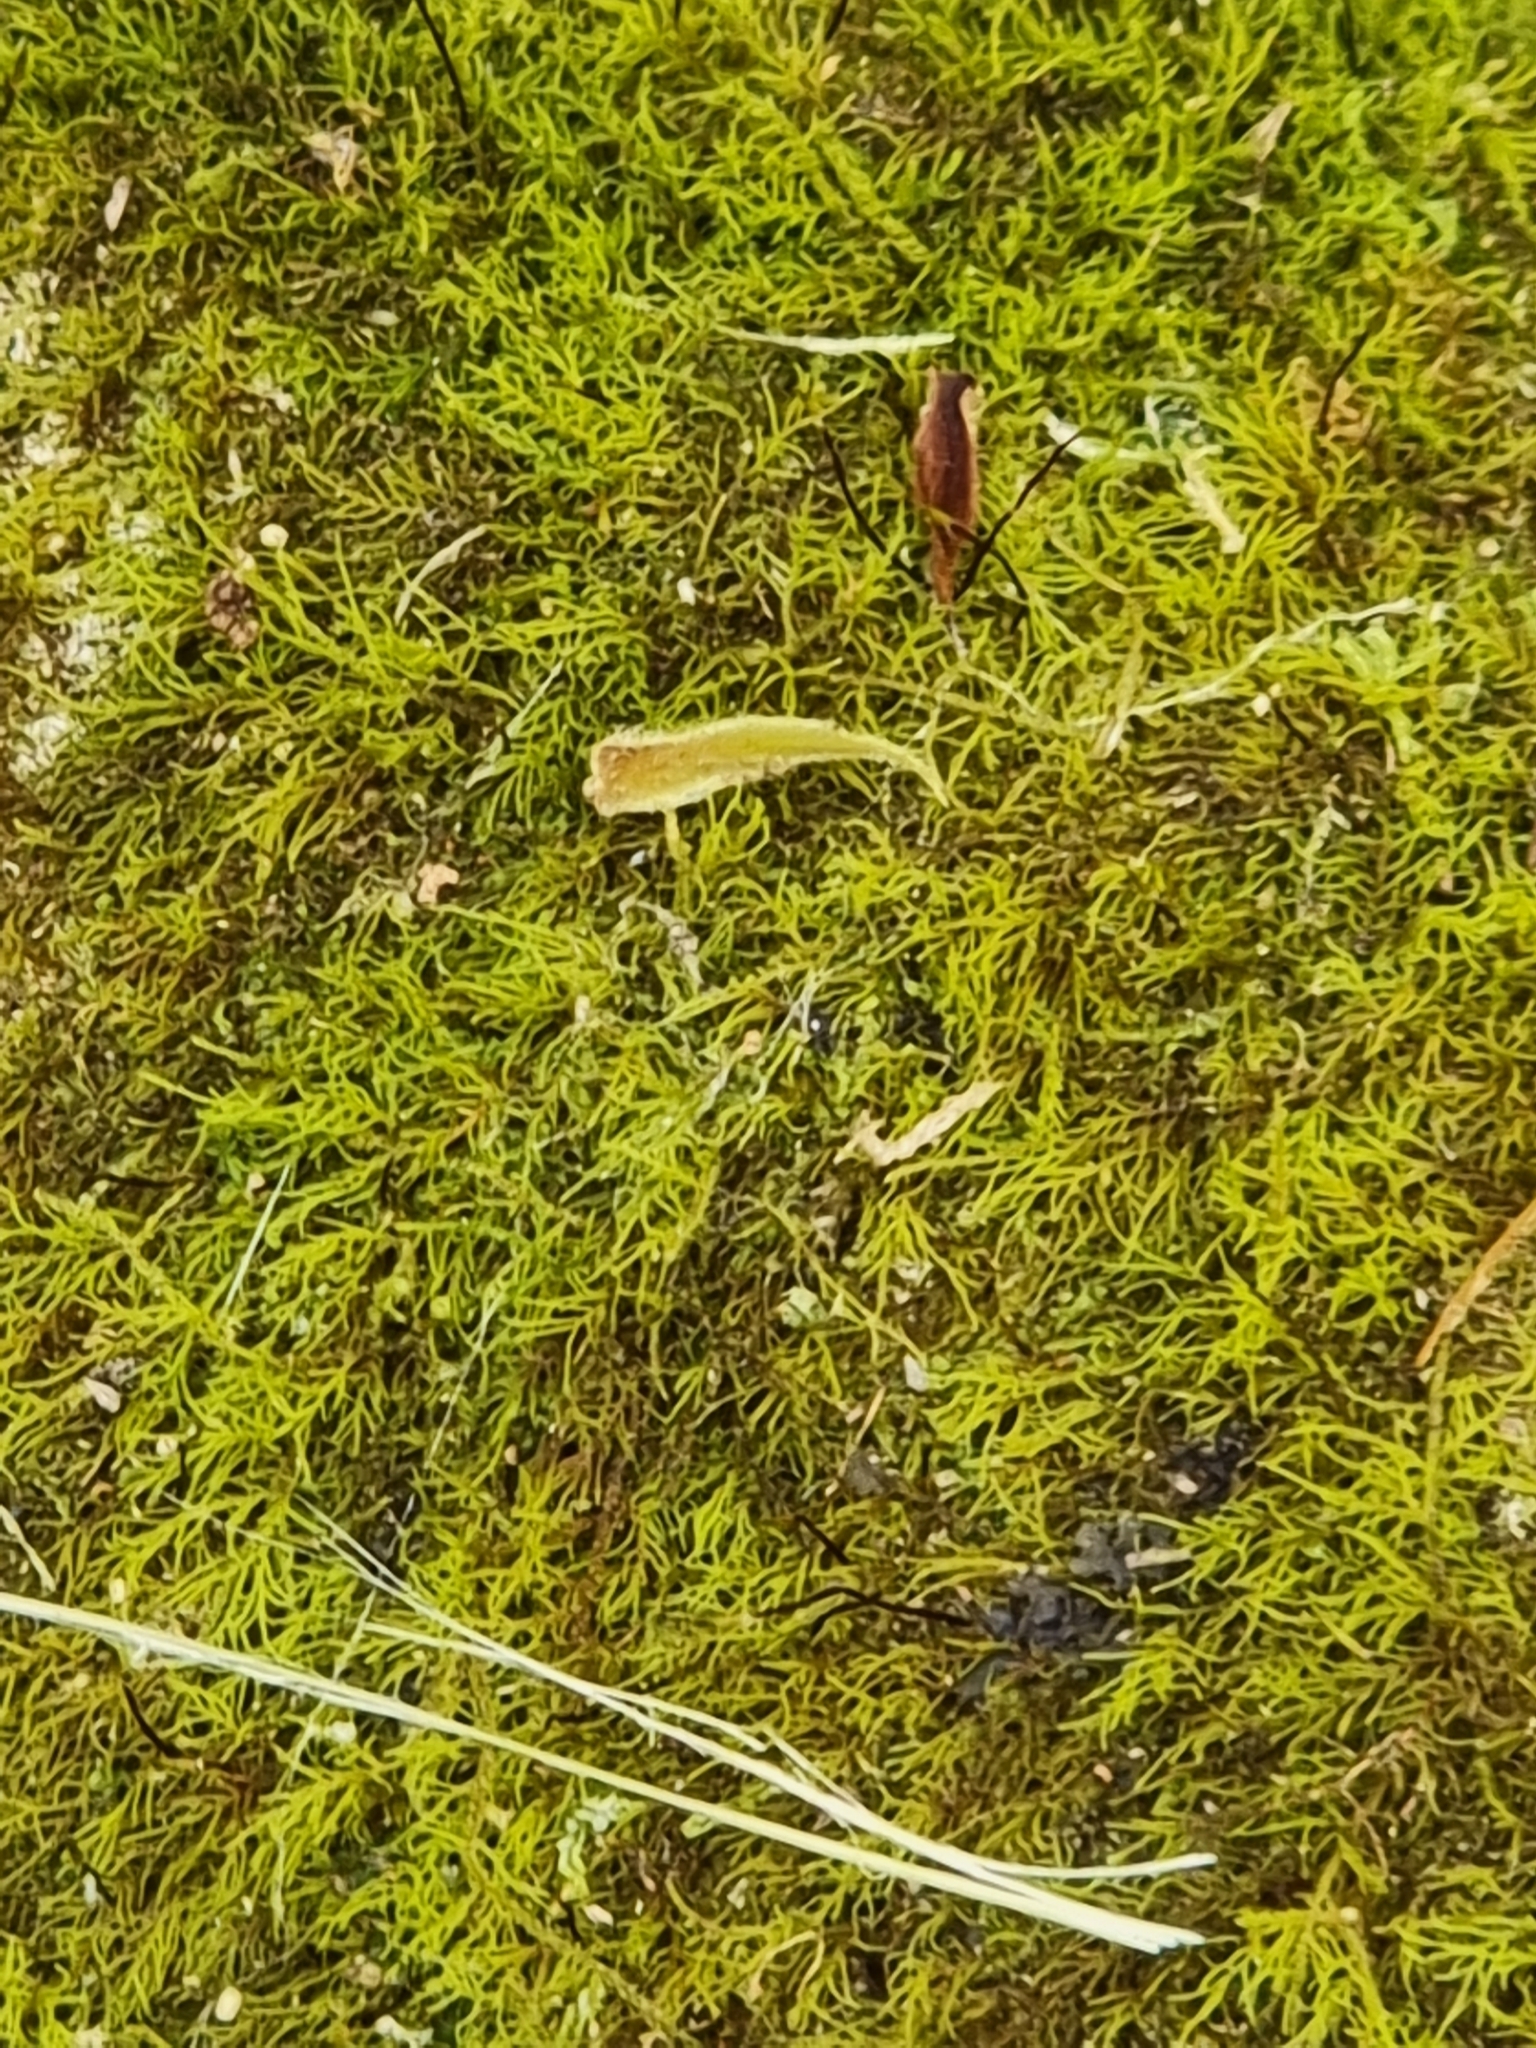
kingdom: Fungi
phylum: Ascomycota
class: Lecanoromycetes
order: Lecanorales
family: Cladoniaceae
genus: Cladia
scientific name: Cladia aggregata
